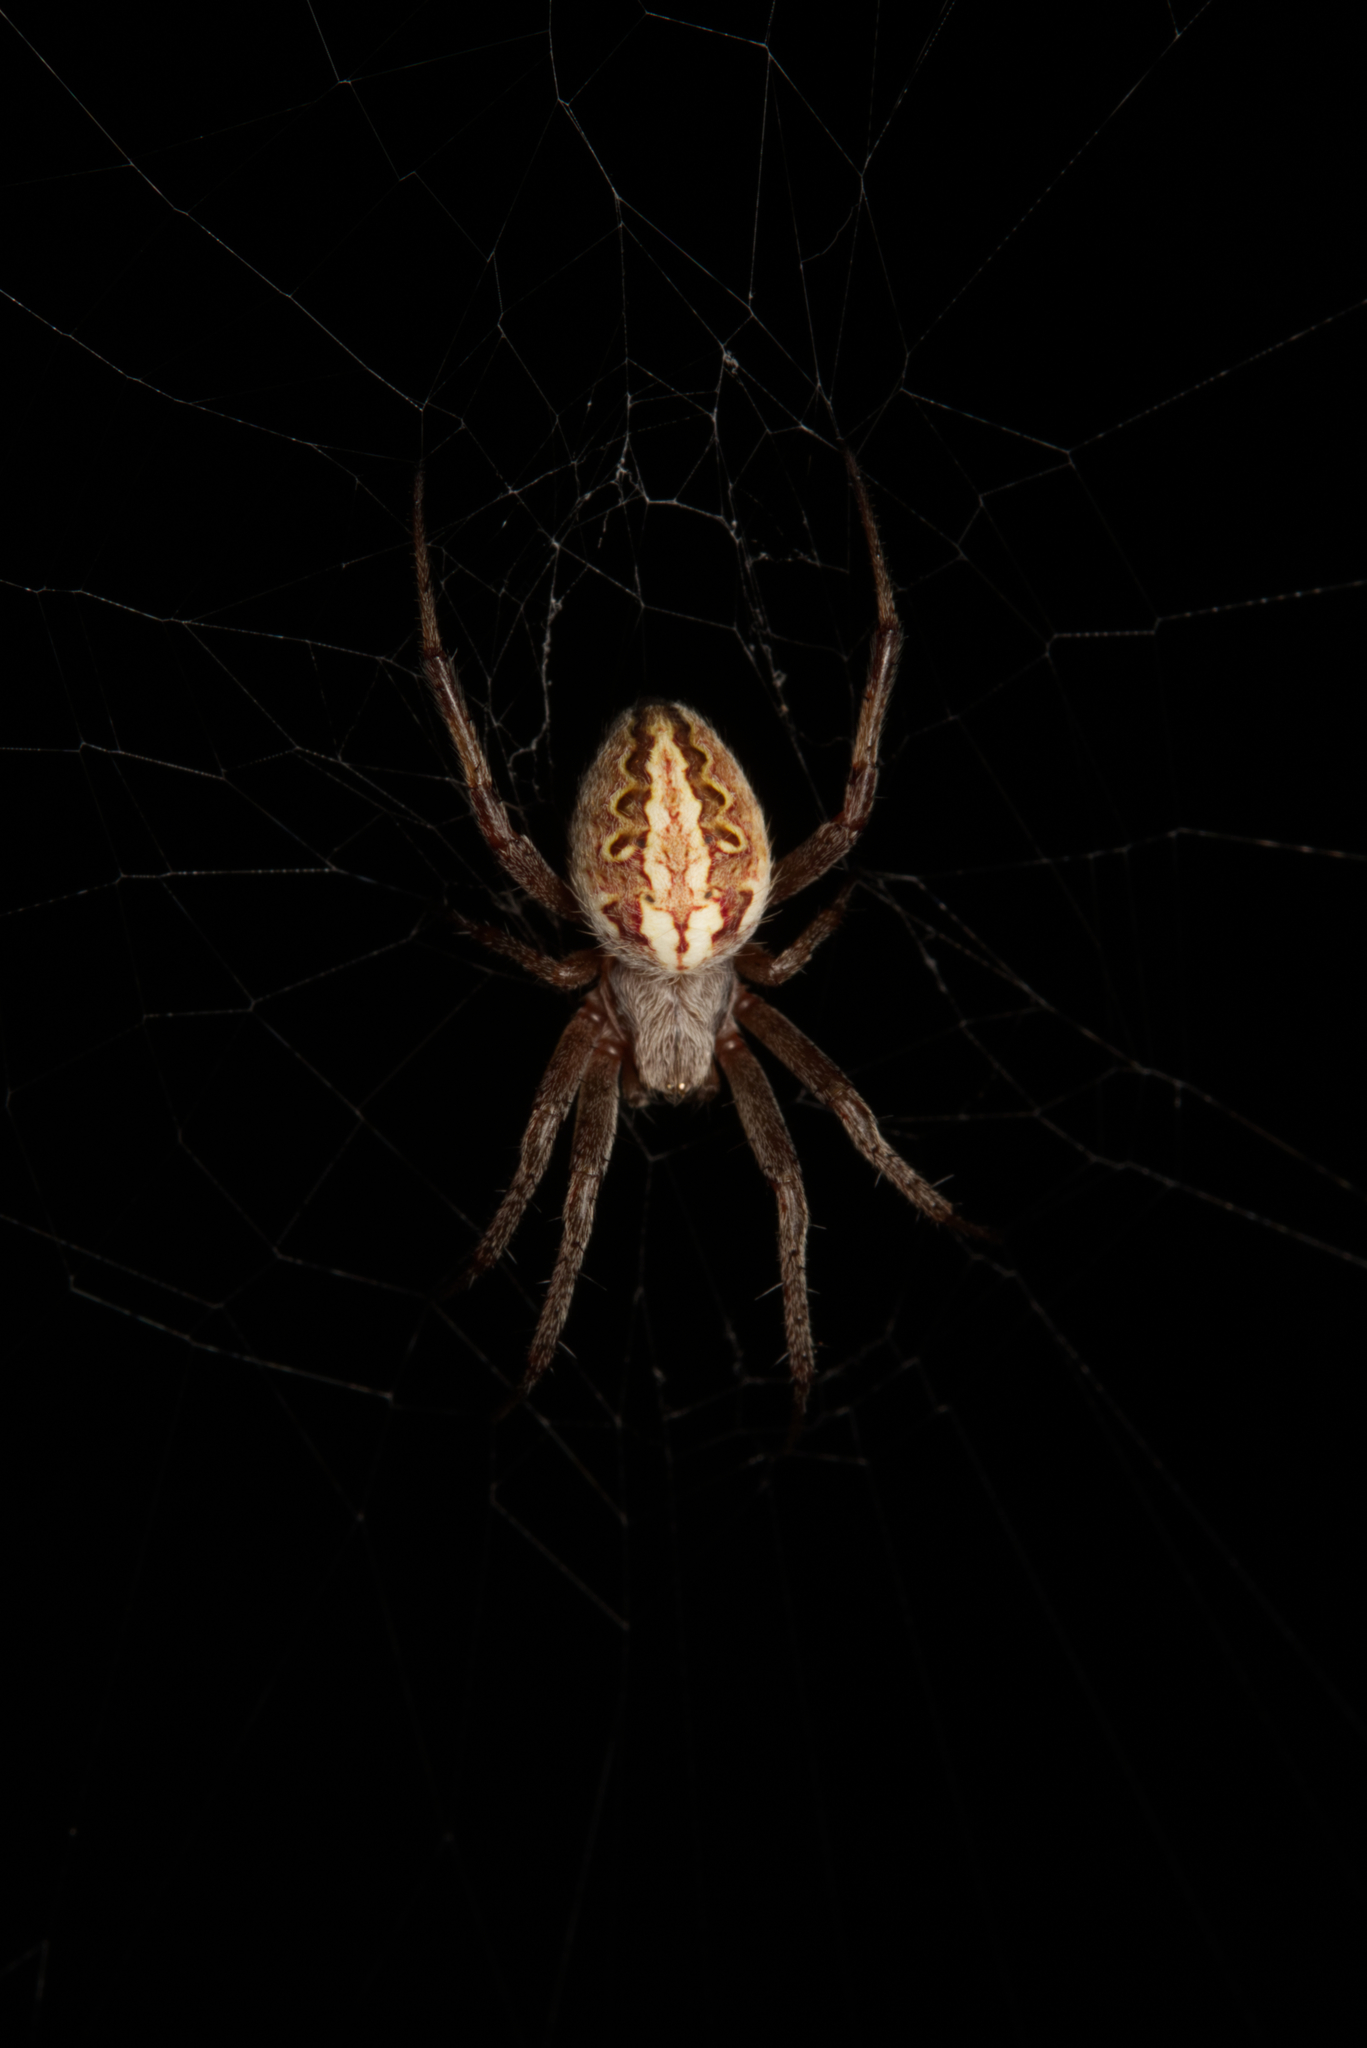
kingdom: Animalia
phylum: Arthropoda
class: Arachnida
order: Araneae
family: Araneidae
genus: Neoscona
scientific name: Neoscona theisi
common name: Spider
